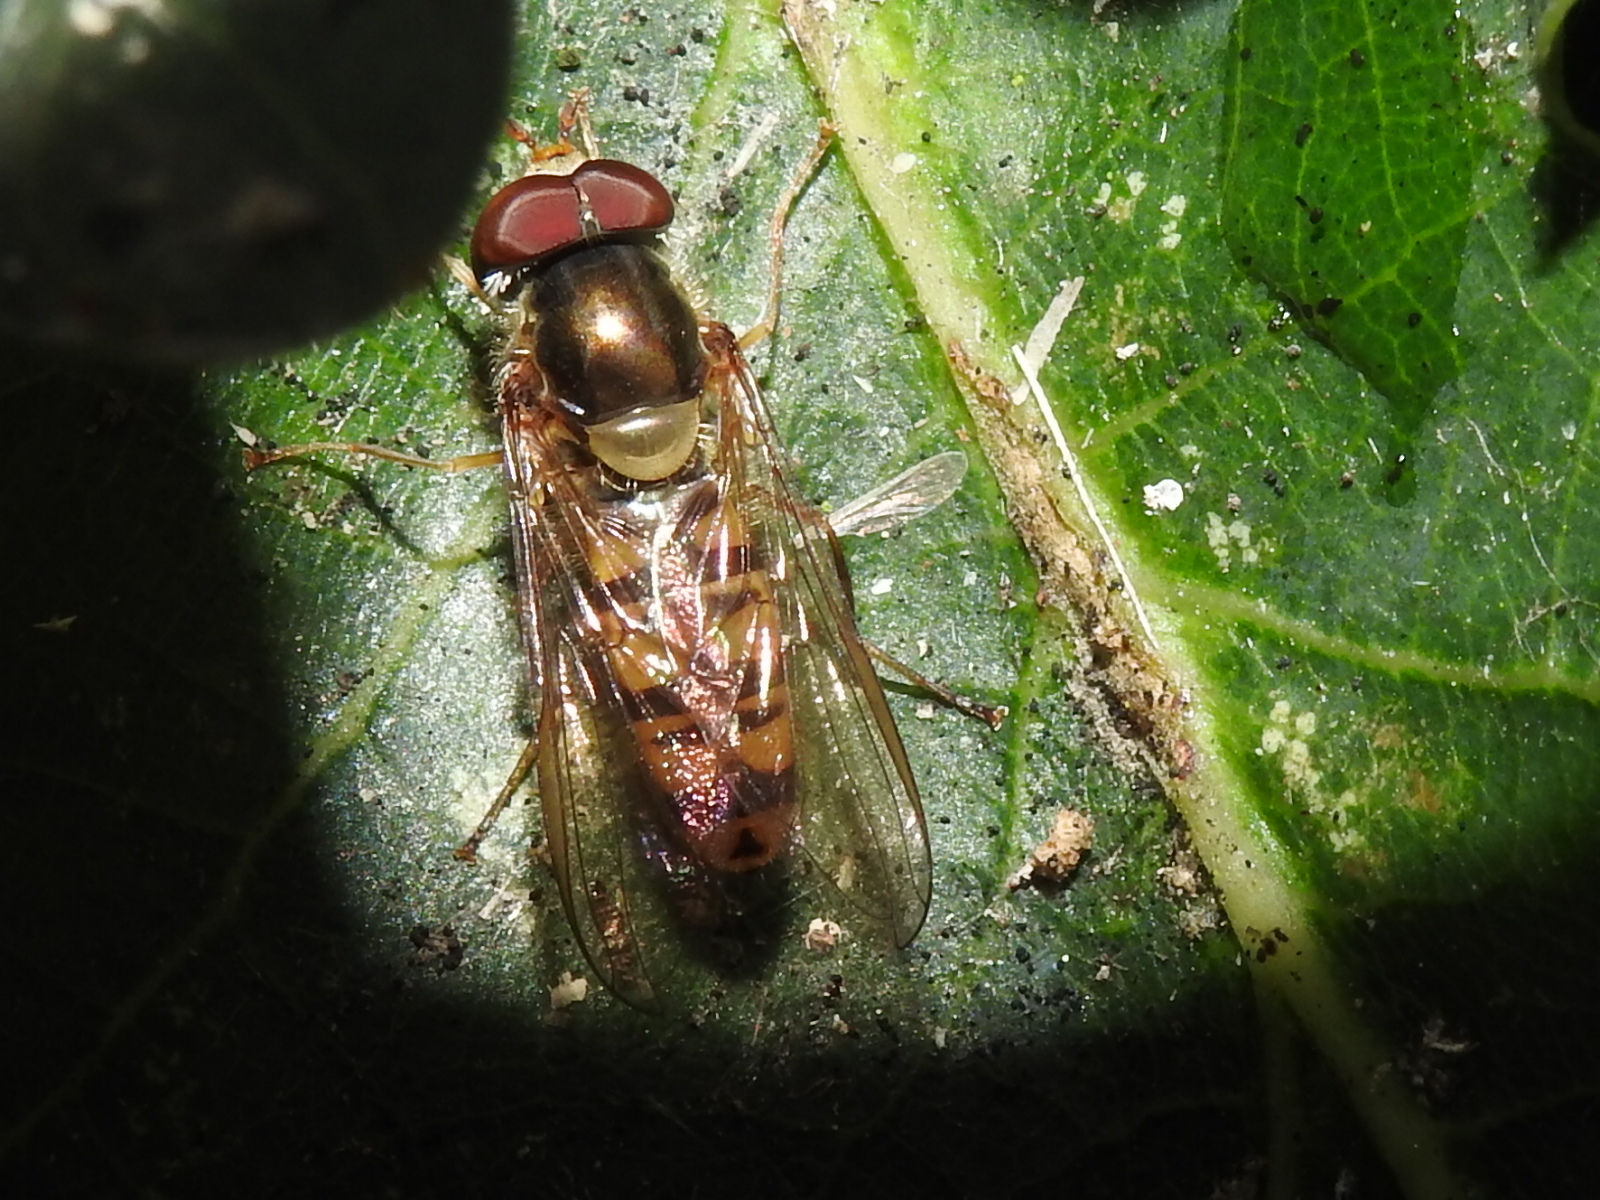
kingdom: Animalia
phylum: Arthropoda
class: Insecta
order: Diptera
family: Syrphidae
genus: Episyrphus
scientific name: Episyrphus balteatus
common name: Marmalade hoverfly
